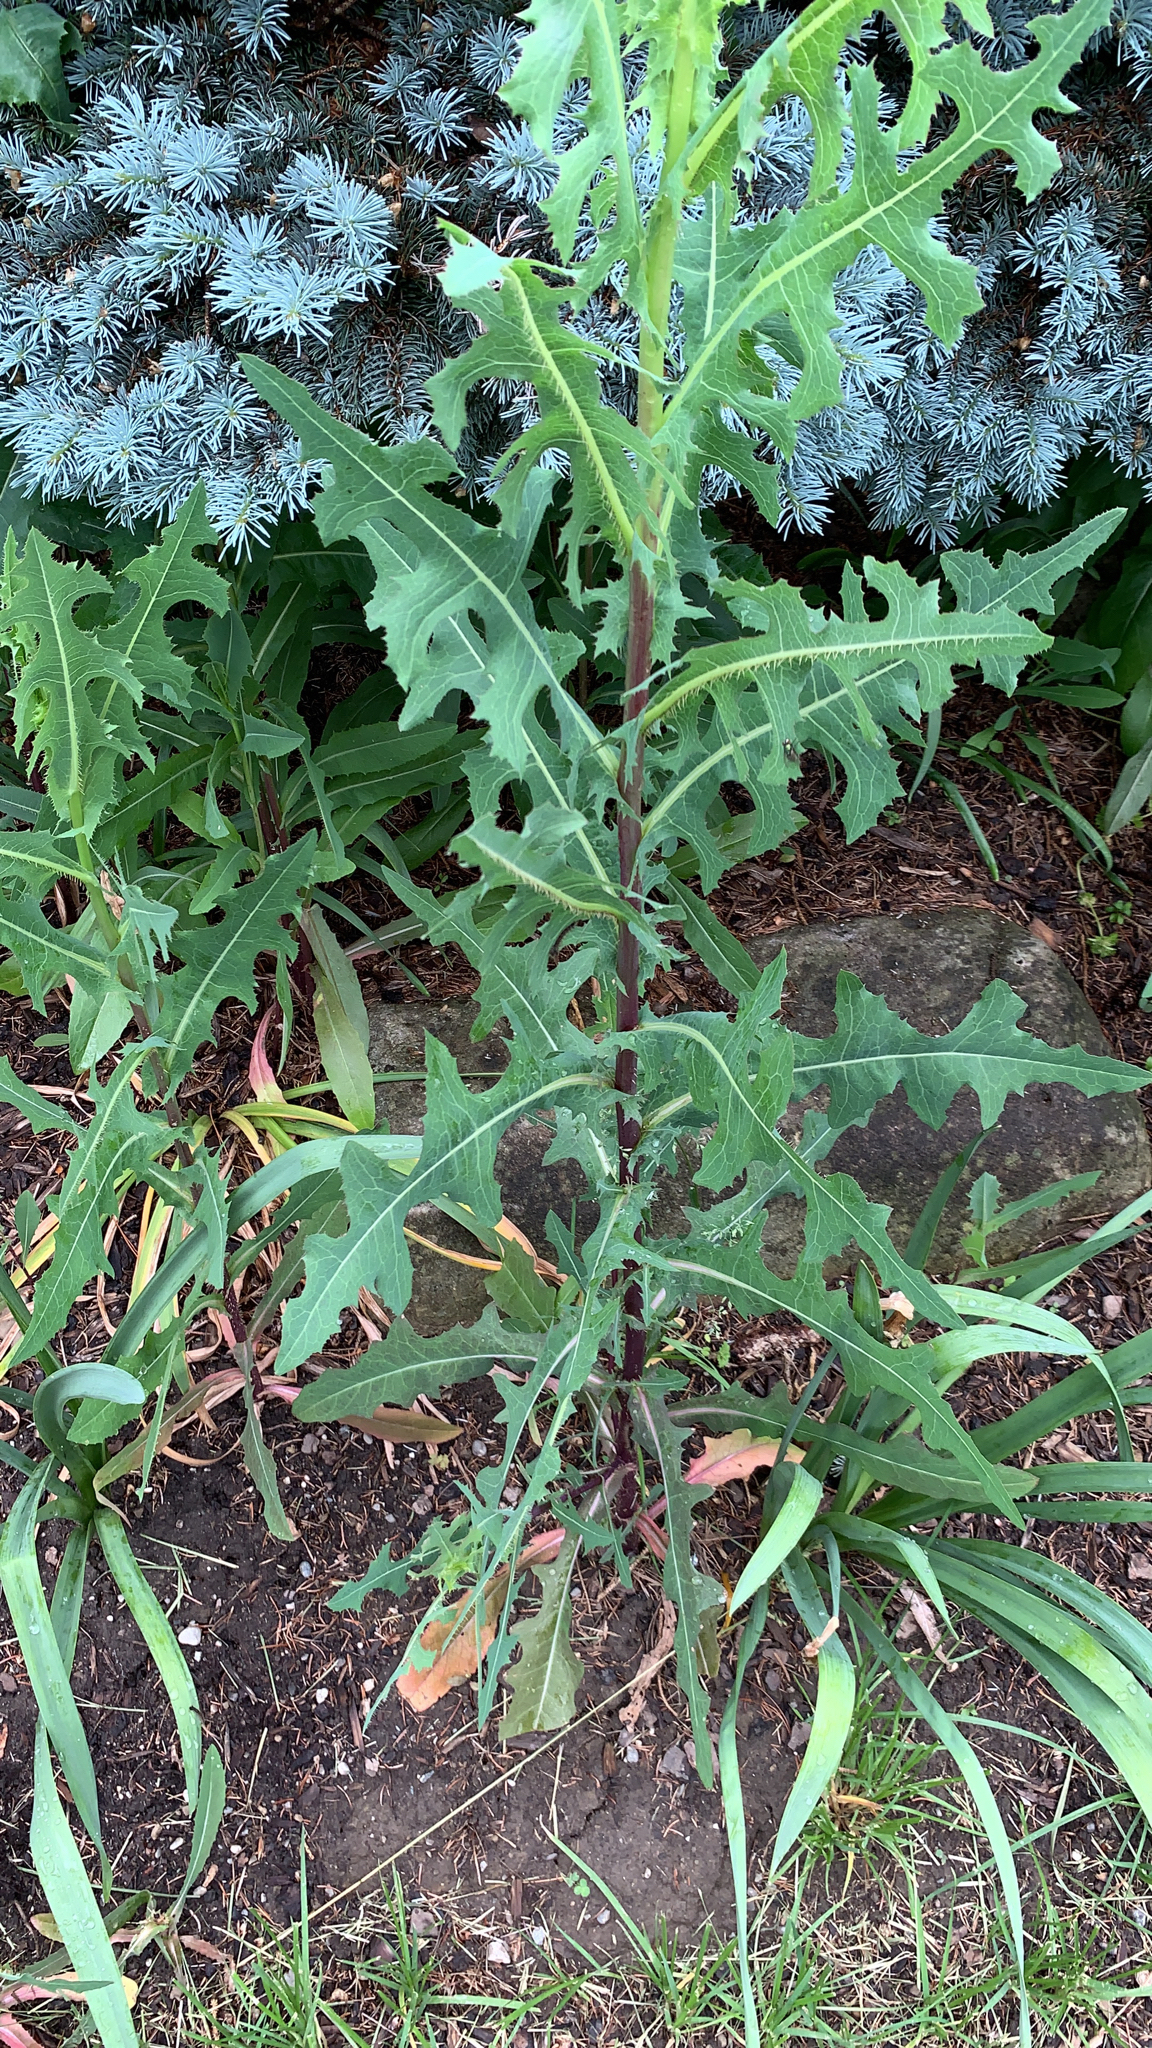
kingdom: Plantae
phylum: Tracheophyta
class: Magnoliopsida
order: Asterales
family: Asteraceae
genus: Lactuca
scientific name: Lactuca serriola
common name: Prickly lettuce
